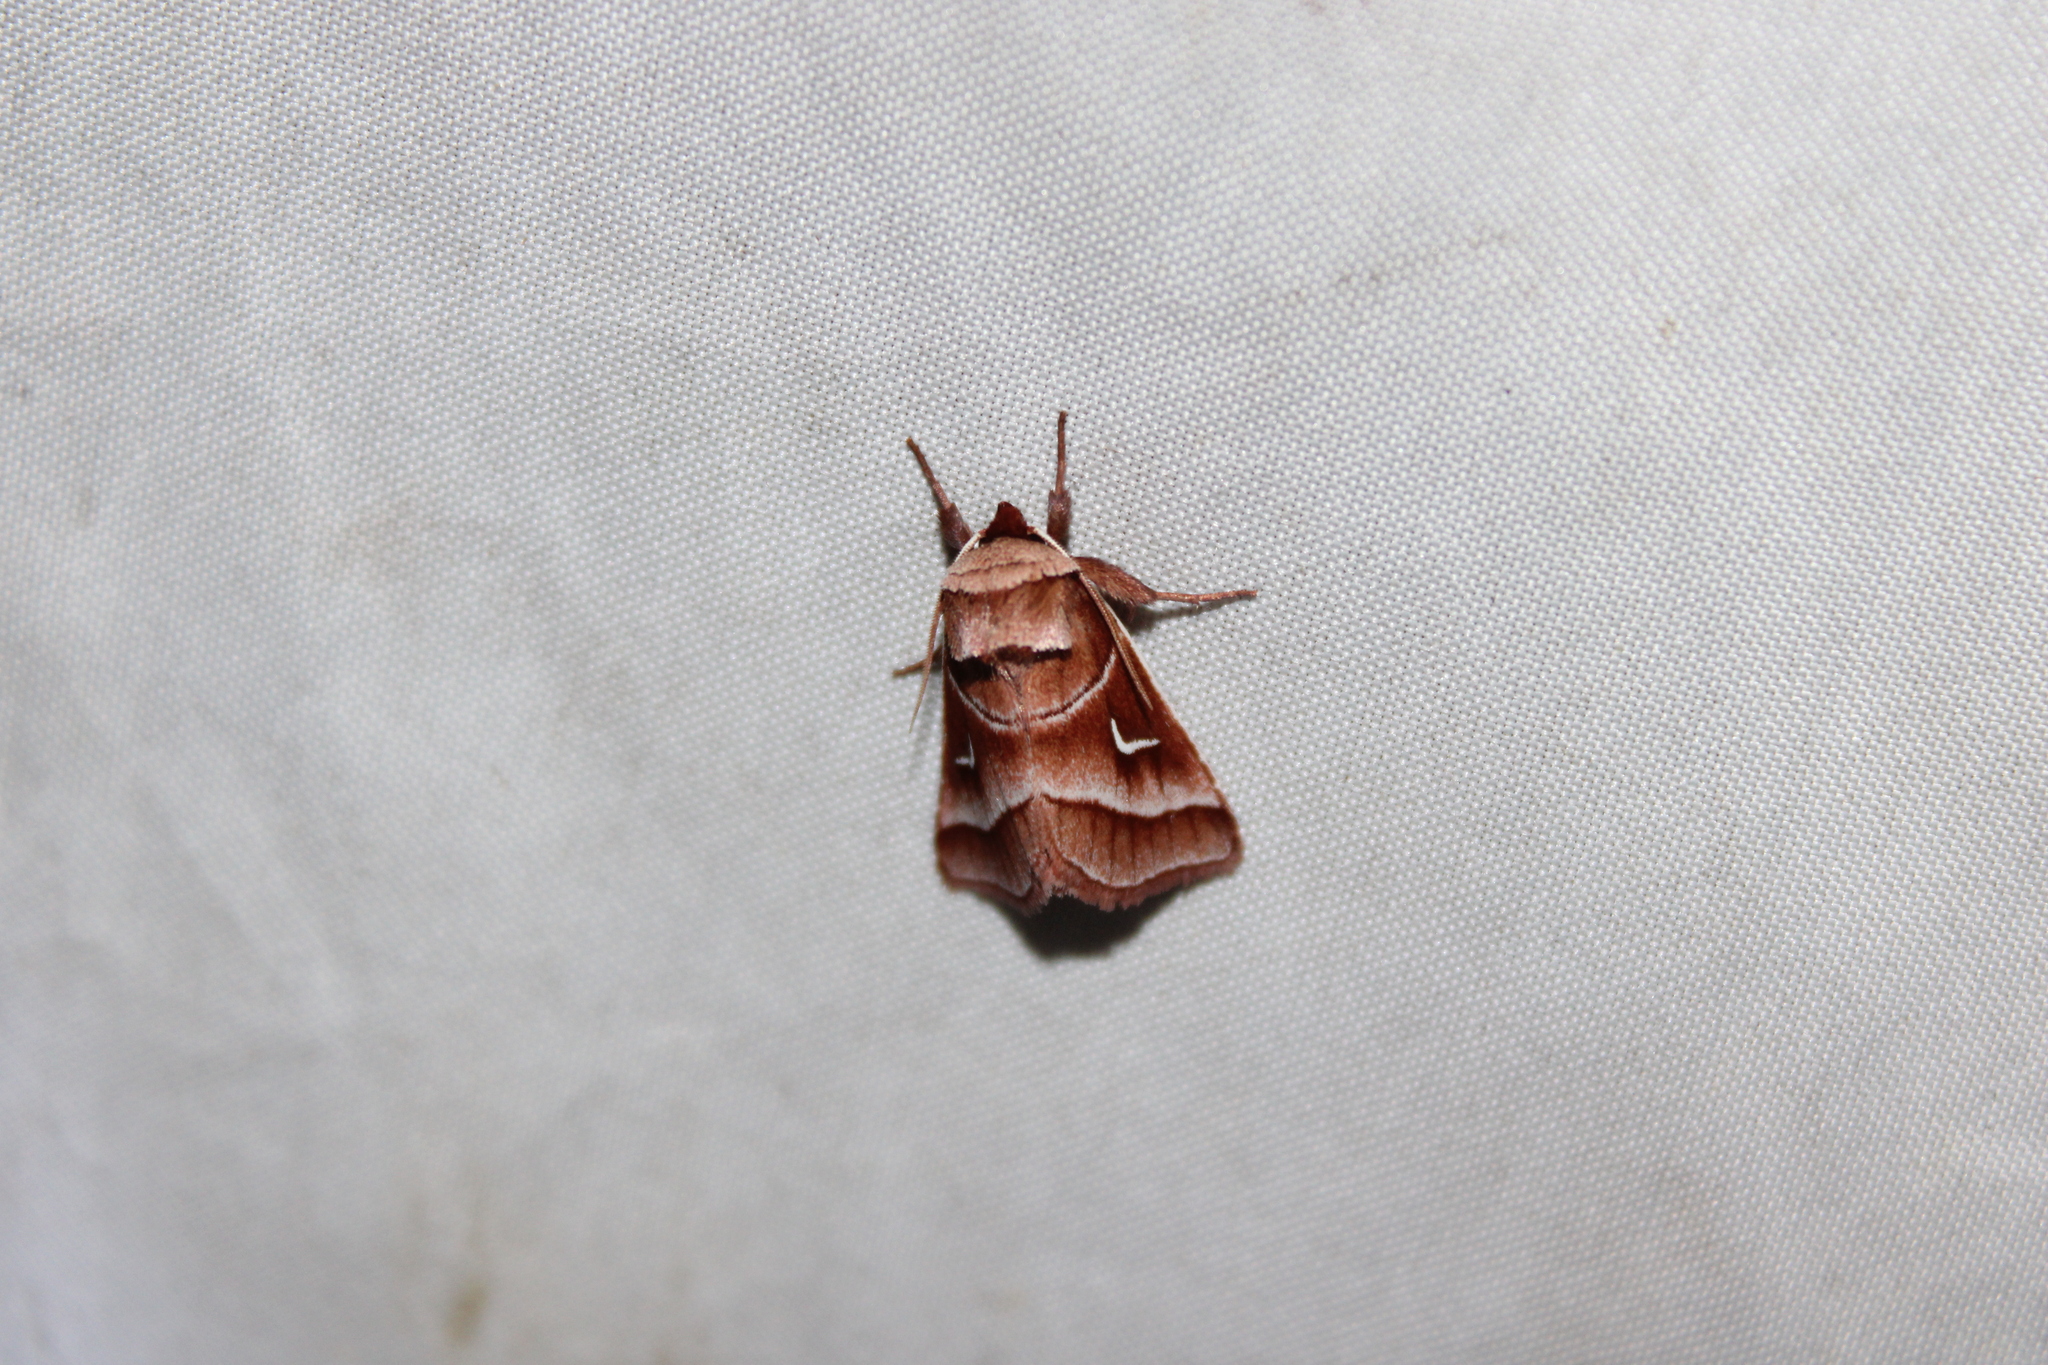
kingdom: Animalia
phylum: Arthropoda
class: Insecta
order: Lepidoptera
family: Noctuidae
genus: Fagitana
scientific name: Fagitana littera
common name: Marsh fern moth
